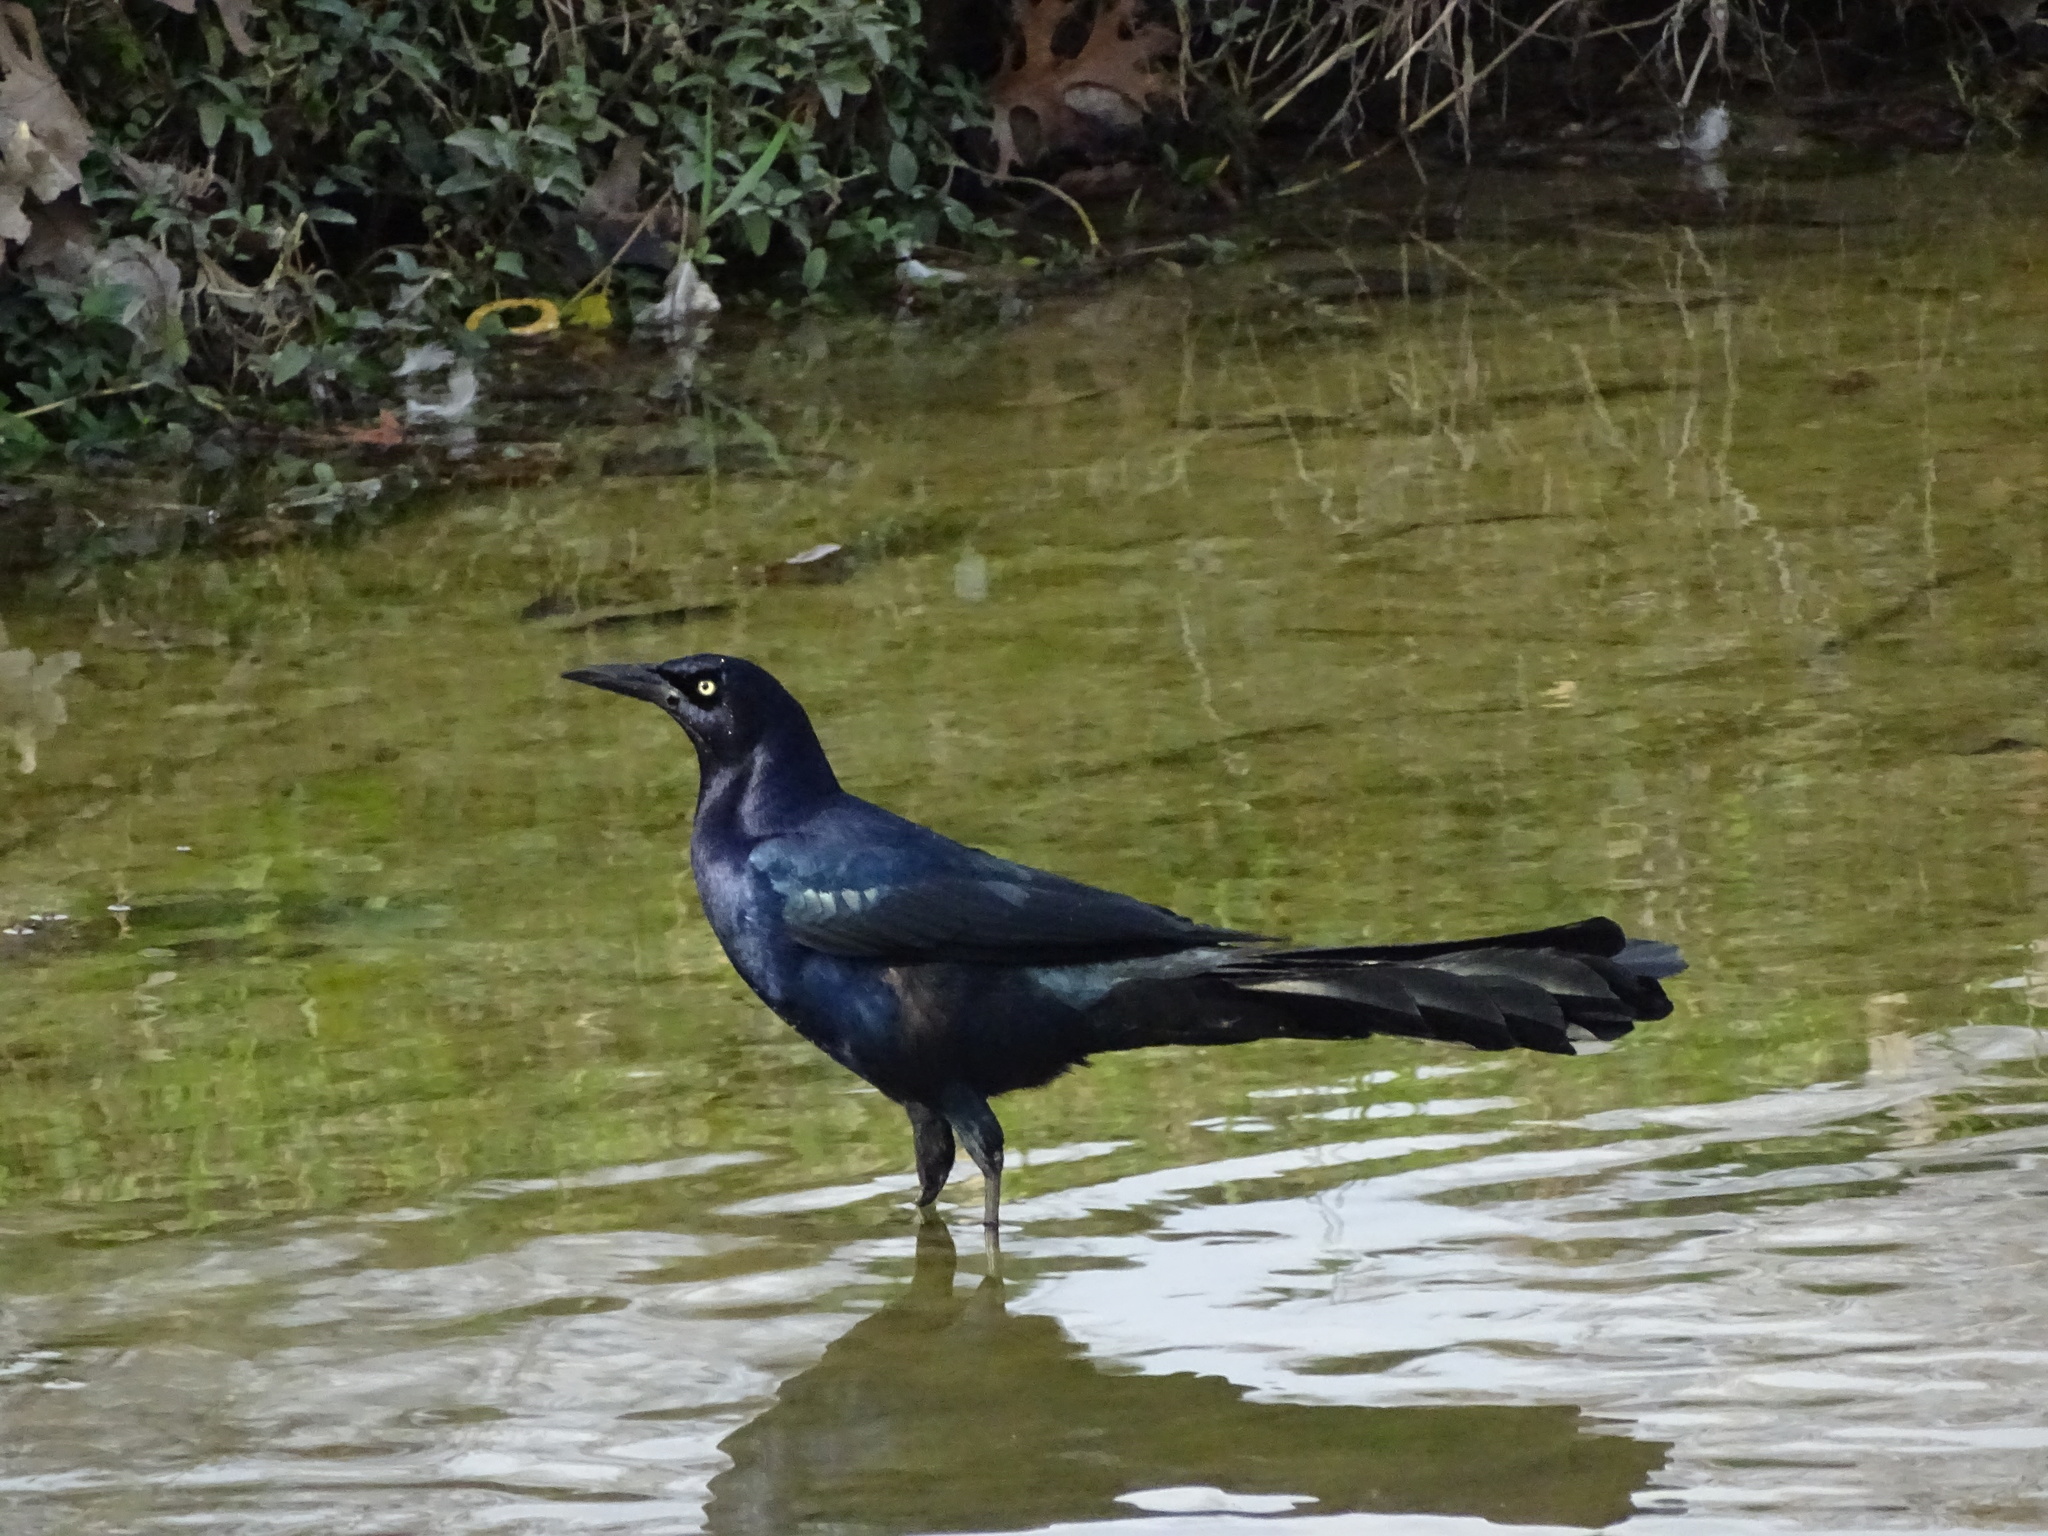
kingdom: Animalia
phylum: Chordata
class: Aves
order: Passeriformes
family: Icteridae
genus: Quiscalus
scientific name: Quiscalus mexicanus
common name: Great-tailed grackle
